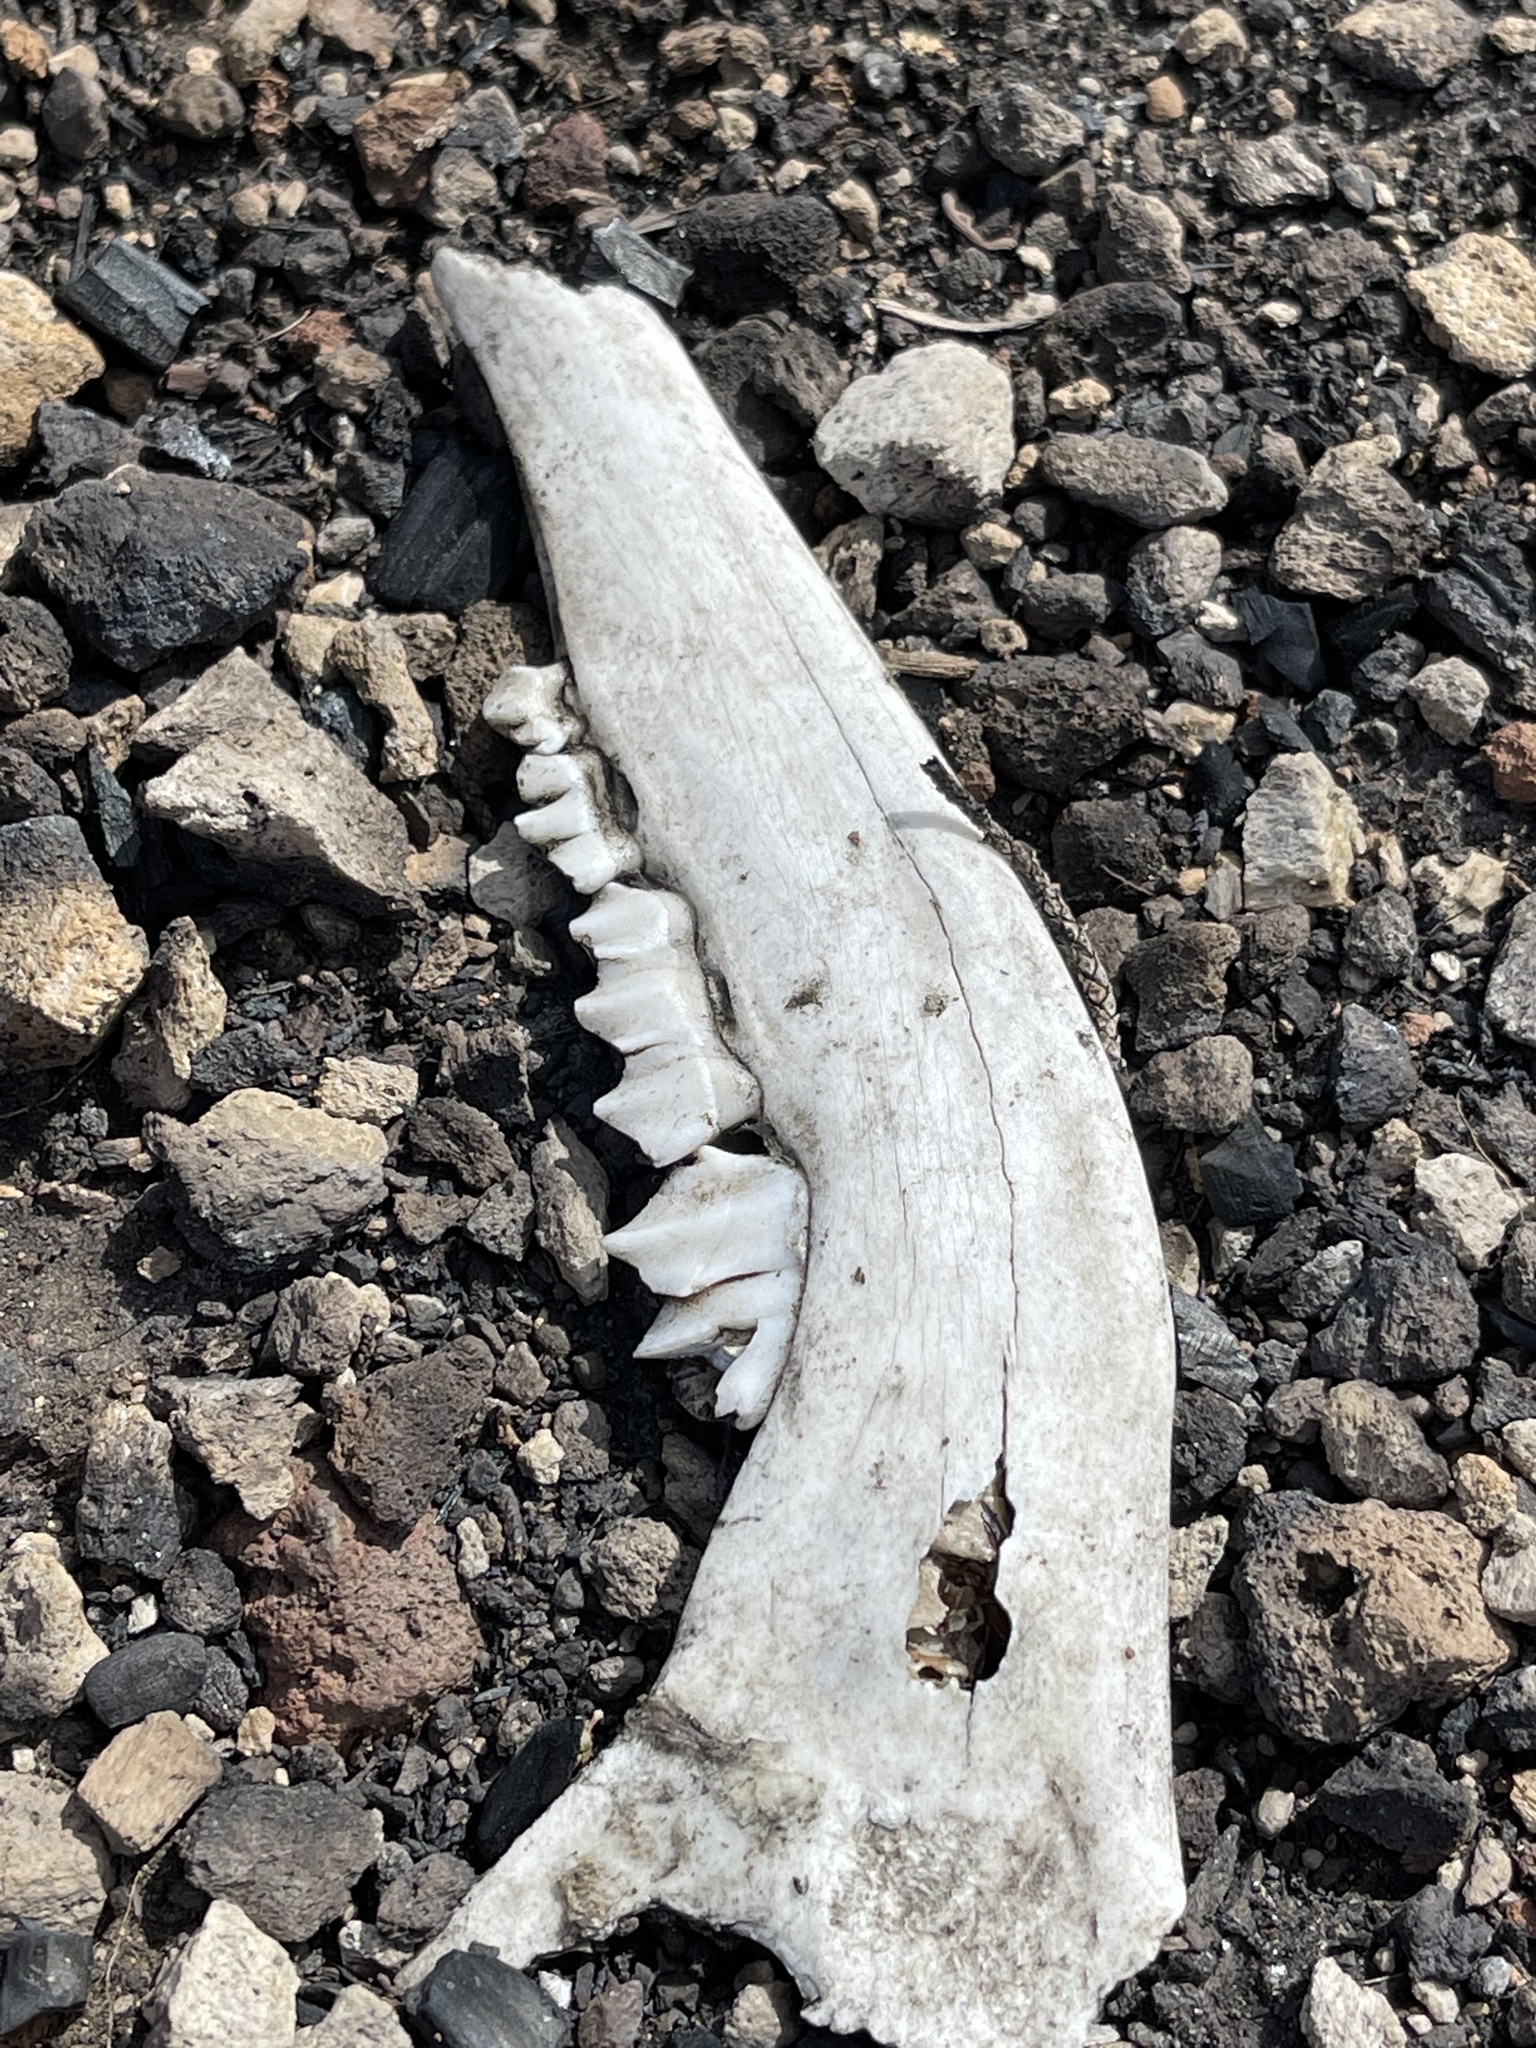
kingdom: Animalia
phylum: Chordata
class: Mammalia
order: Artiodactyla
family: Cervidae
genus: Odocoileus
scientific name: Odocoileus hemionus
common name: Mule deer
